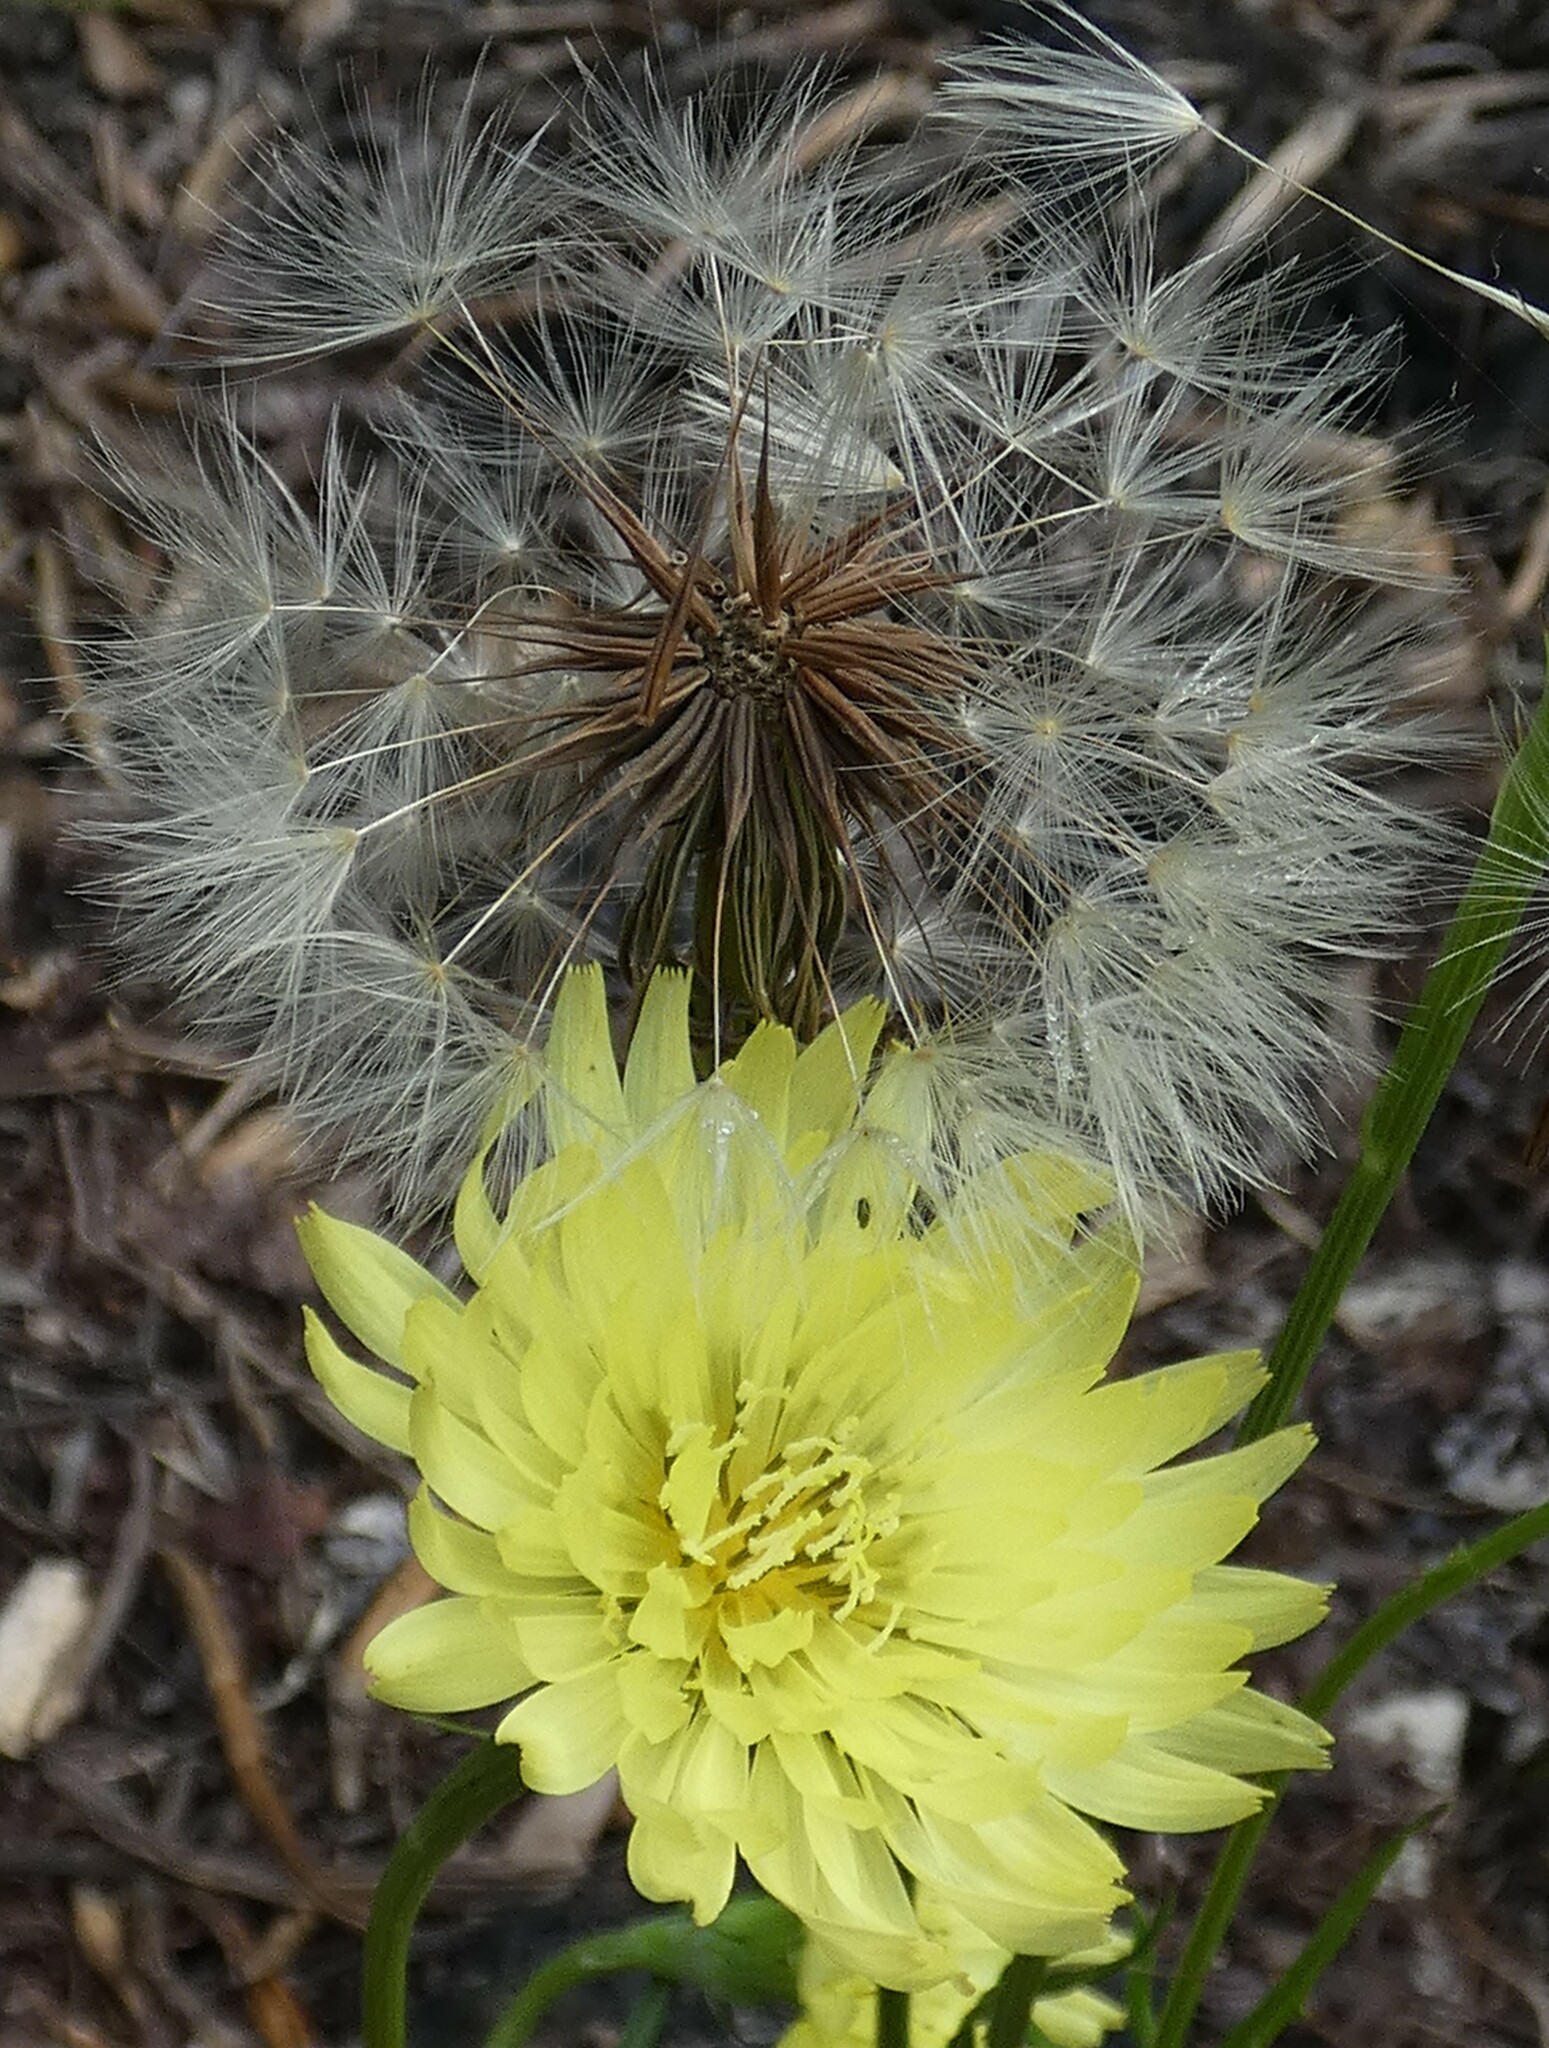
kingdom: Plantae
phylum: Tracheophyta
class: Magnoliopsida
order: Asterales
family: Asteraceae
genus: Pyrrhopappus
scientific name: Pyrrhopappus carolinianus
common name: Carolina desert-chicory
